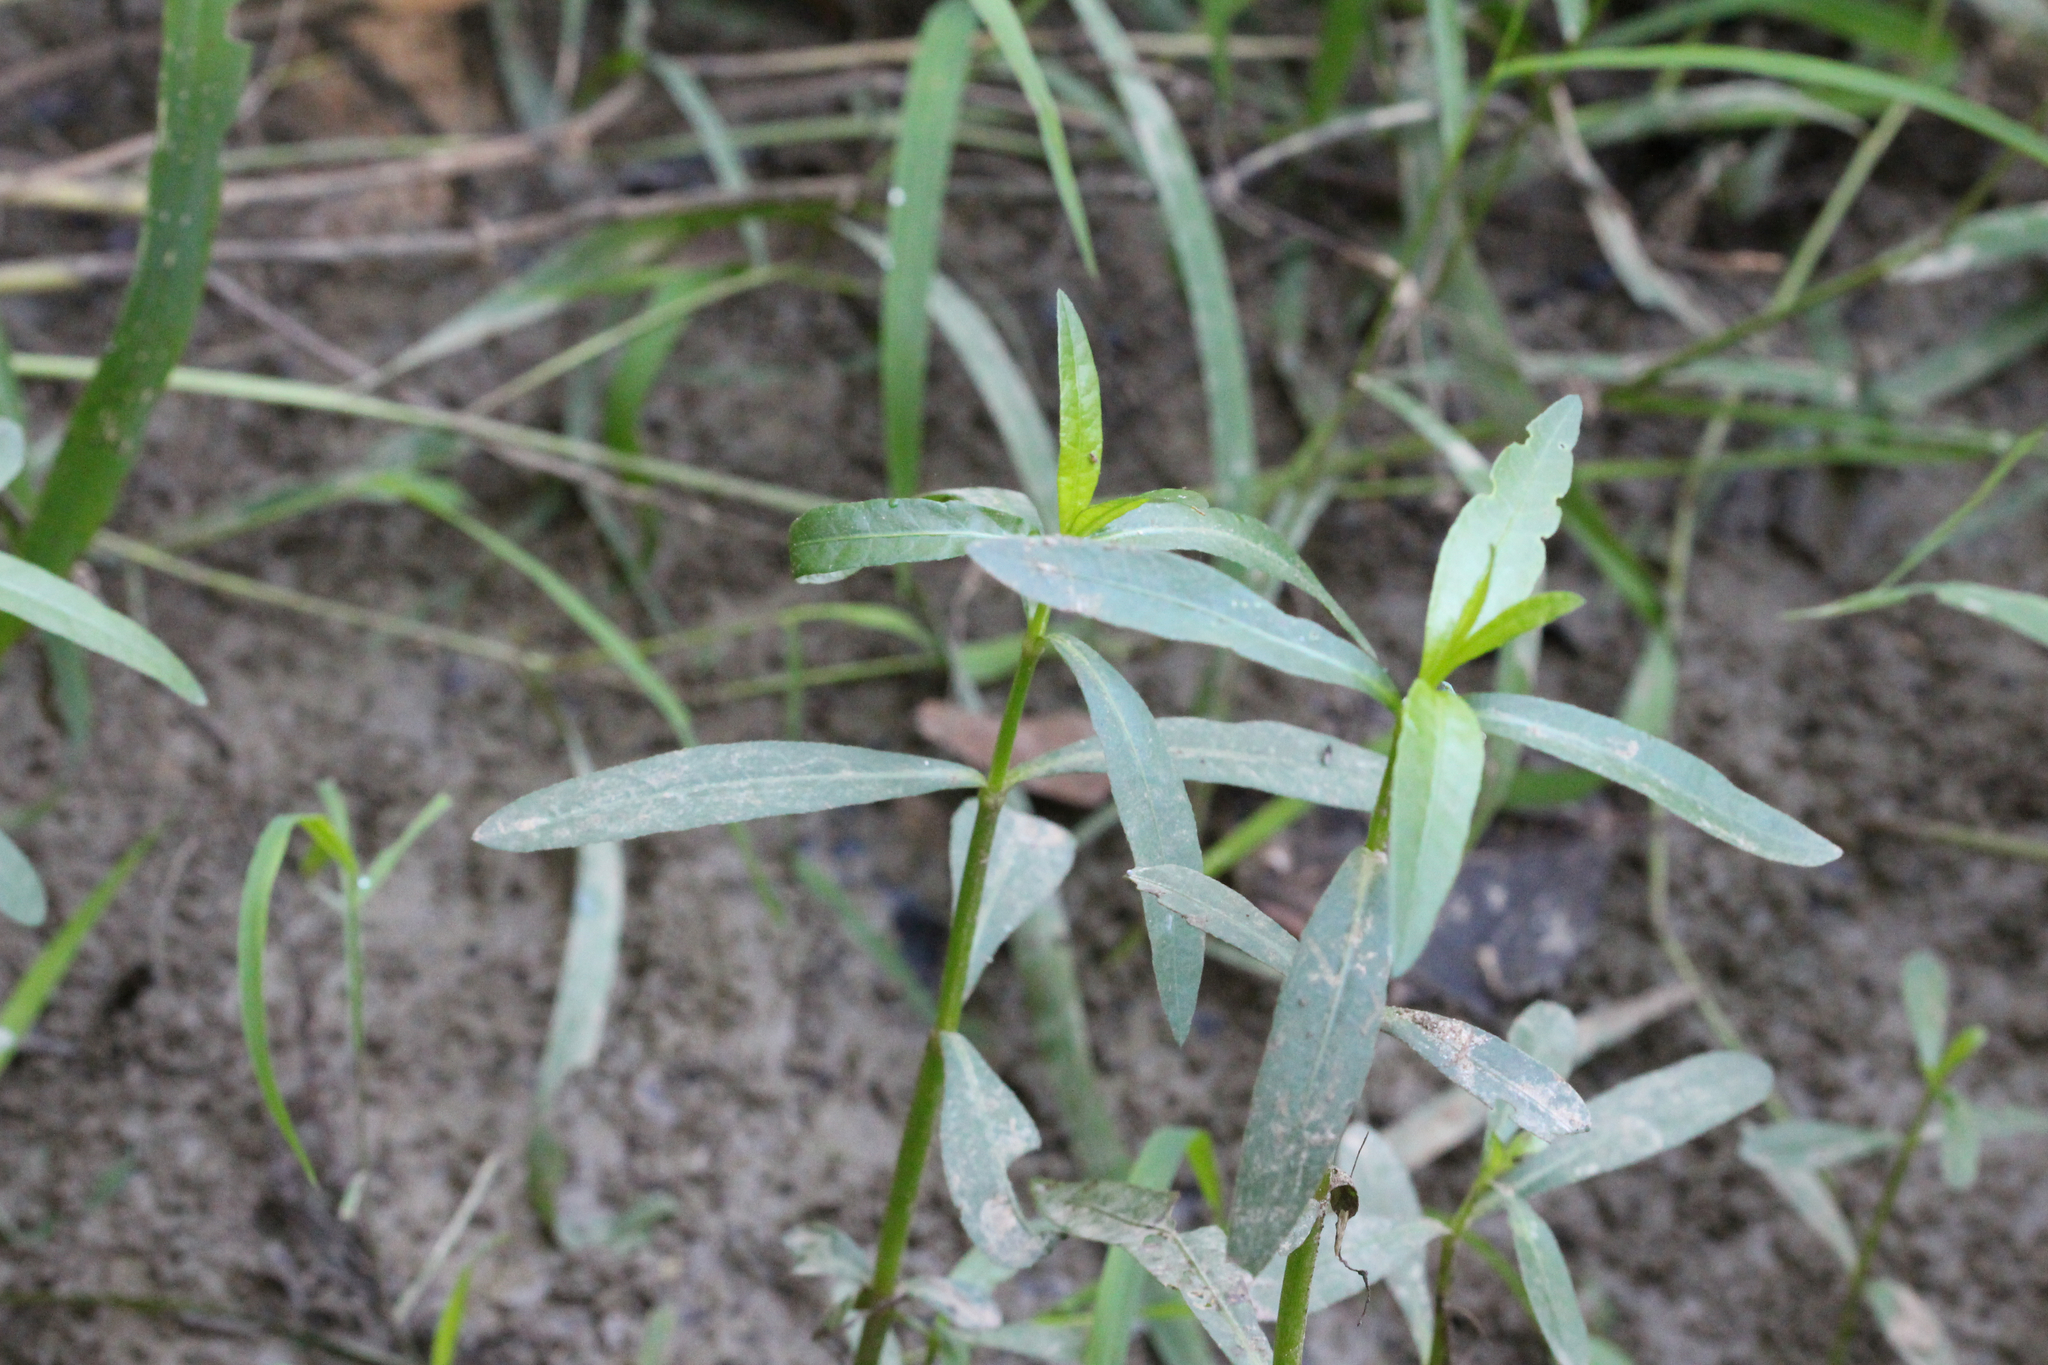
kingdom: Plantae
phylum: Tracheophyta
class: Magnoliopsida
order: Caryophyllales
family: Amaranthaceae
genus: Alternanthera
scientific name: Alternanthera philoxeroides
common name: Alligatorweed
